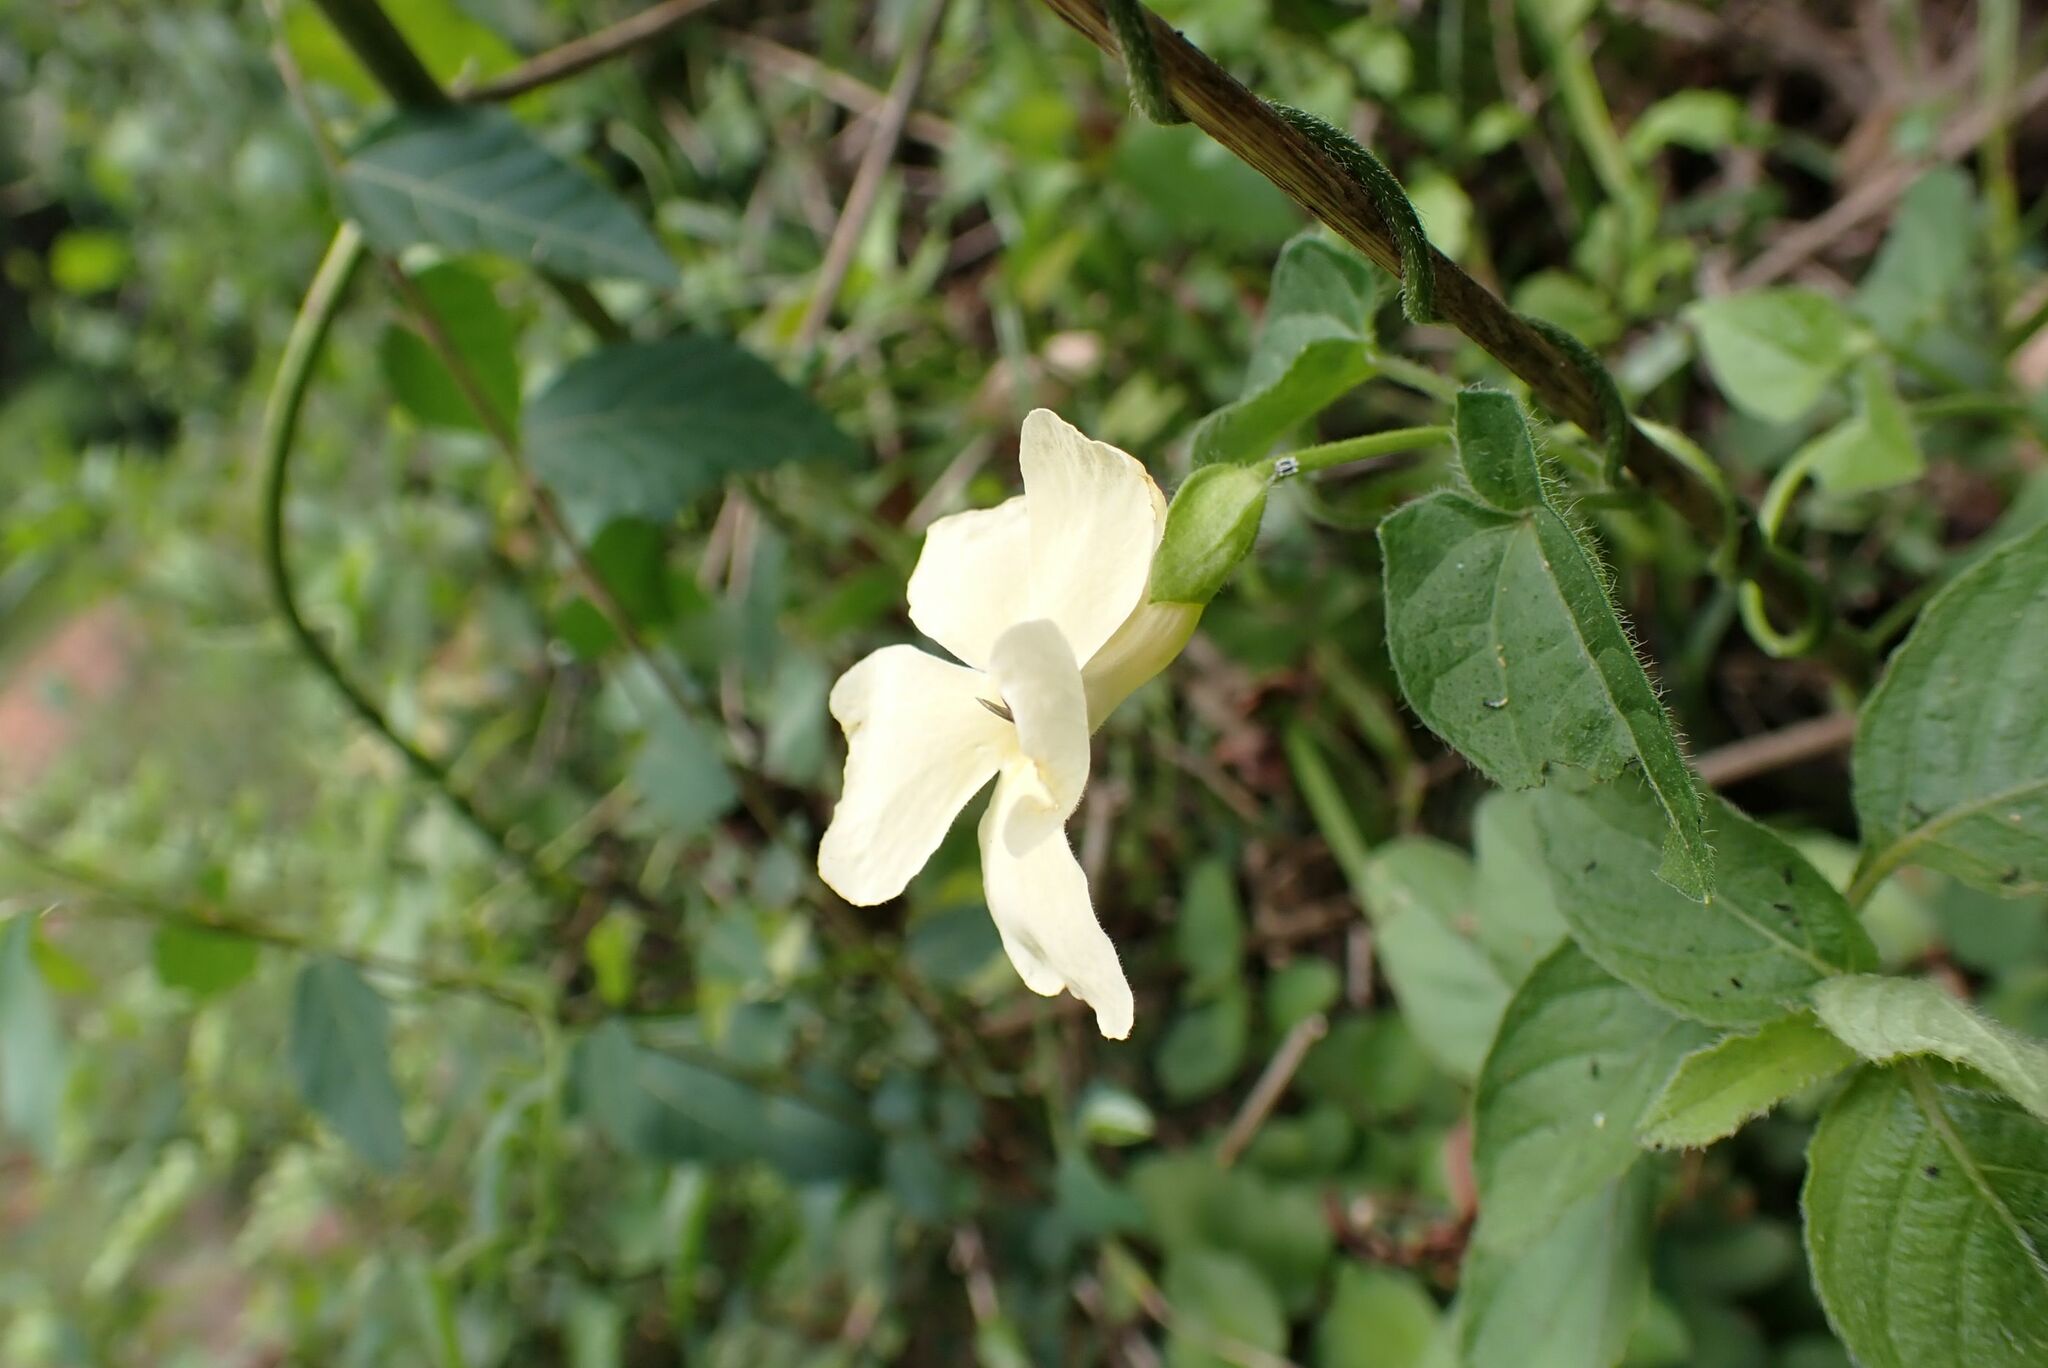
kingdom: Plantae
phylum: Tracheophyta
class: Magnoliopsida
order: Lamiales
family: Acanthaceae
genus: Thunbergia
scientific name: Thunbergia neglecta
